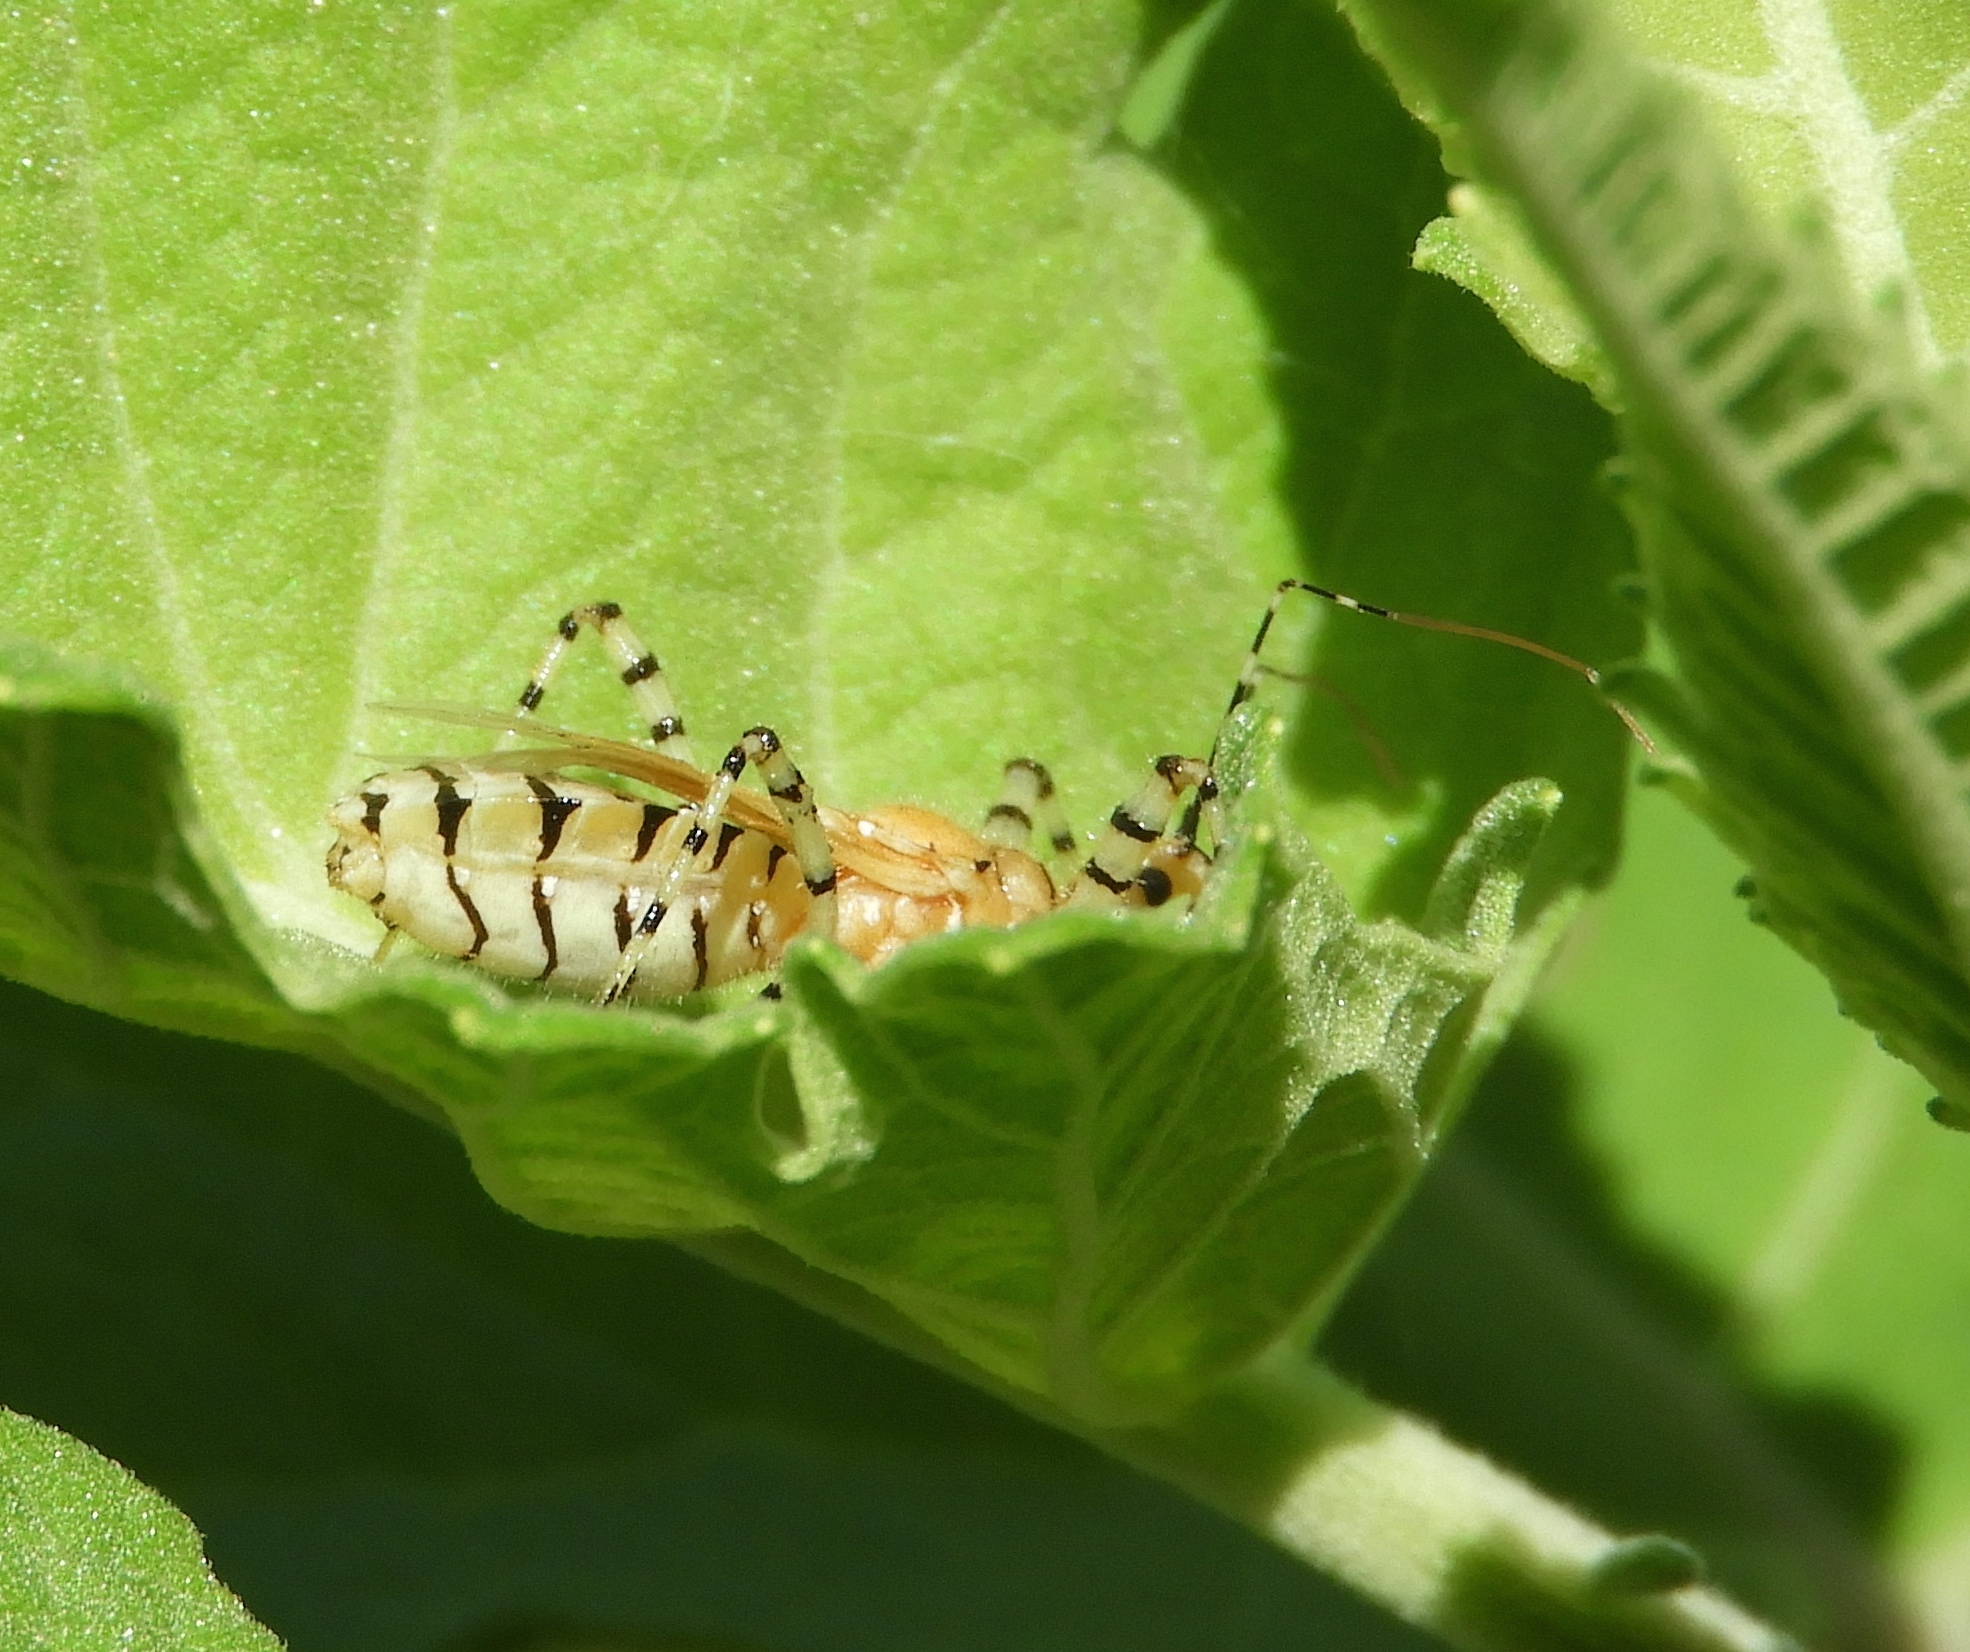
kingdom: Animalia
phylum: Arthropoda
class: Insecta
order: Hemiptera
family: Reduviidae
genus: Pselliopus
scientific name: Pselliopus
